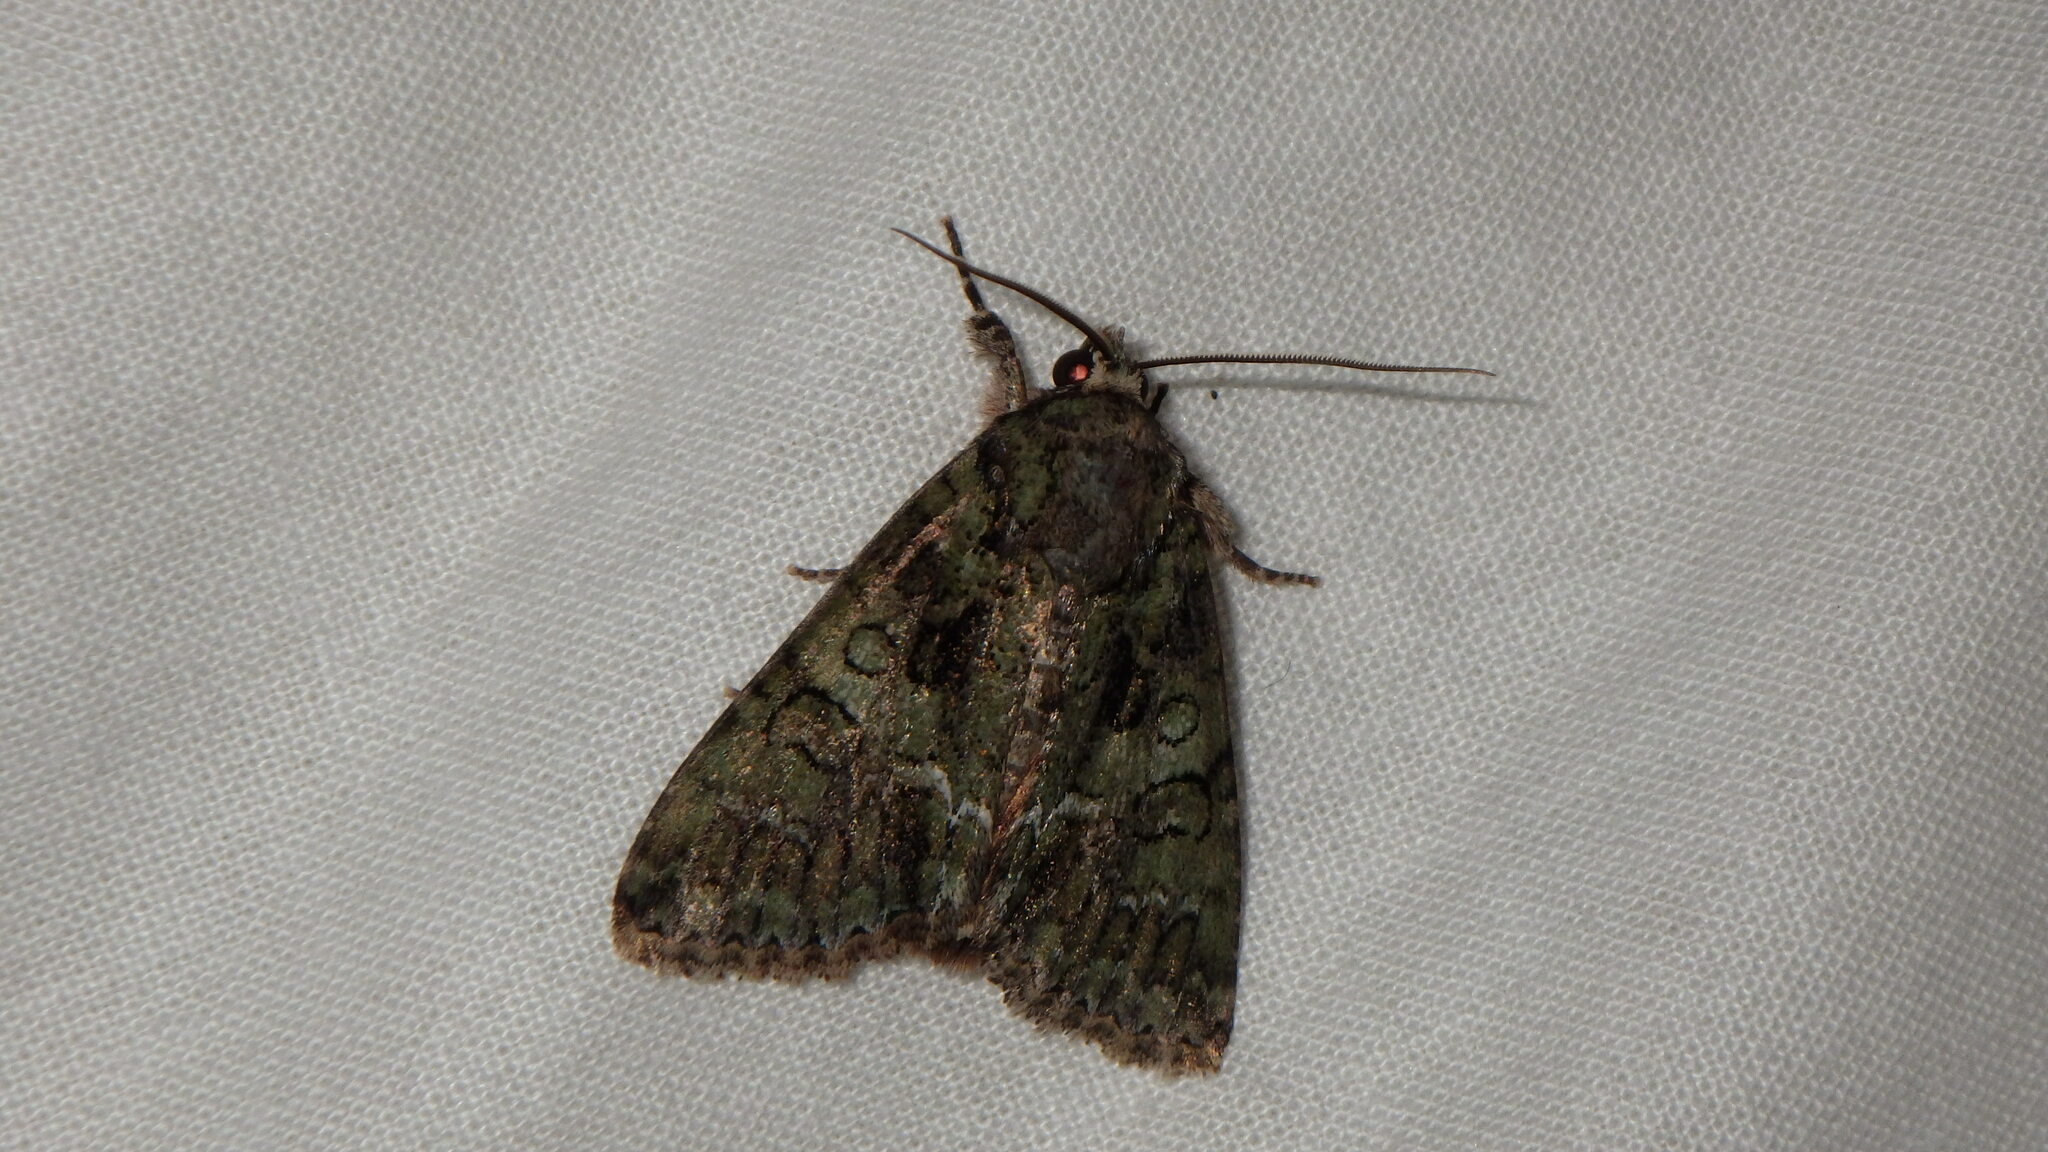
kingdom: Animalia
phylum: Arthropoda
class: Insecta
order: Lepidoptera
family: Noctuidae
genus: Polyphaenis
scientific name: Polyphaenis sericata
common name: Guernsey underwing
